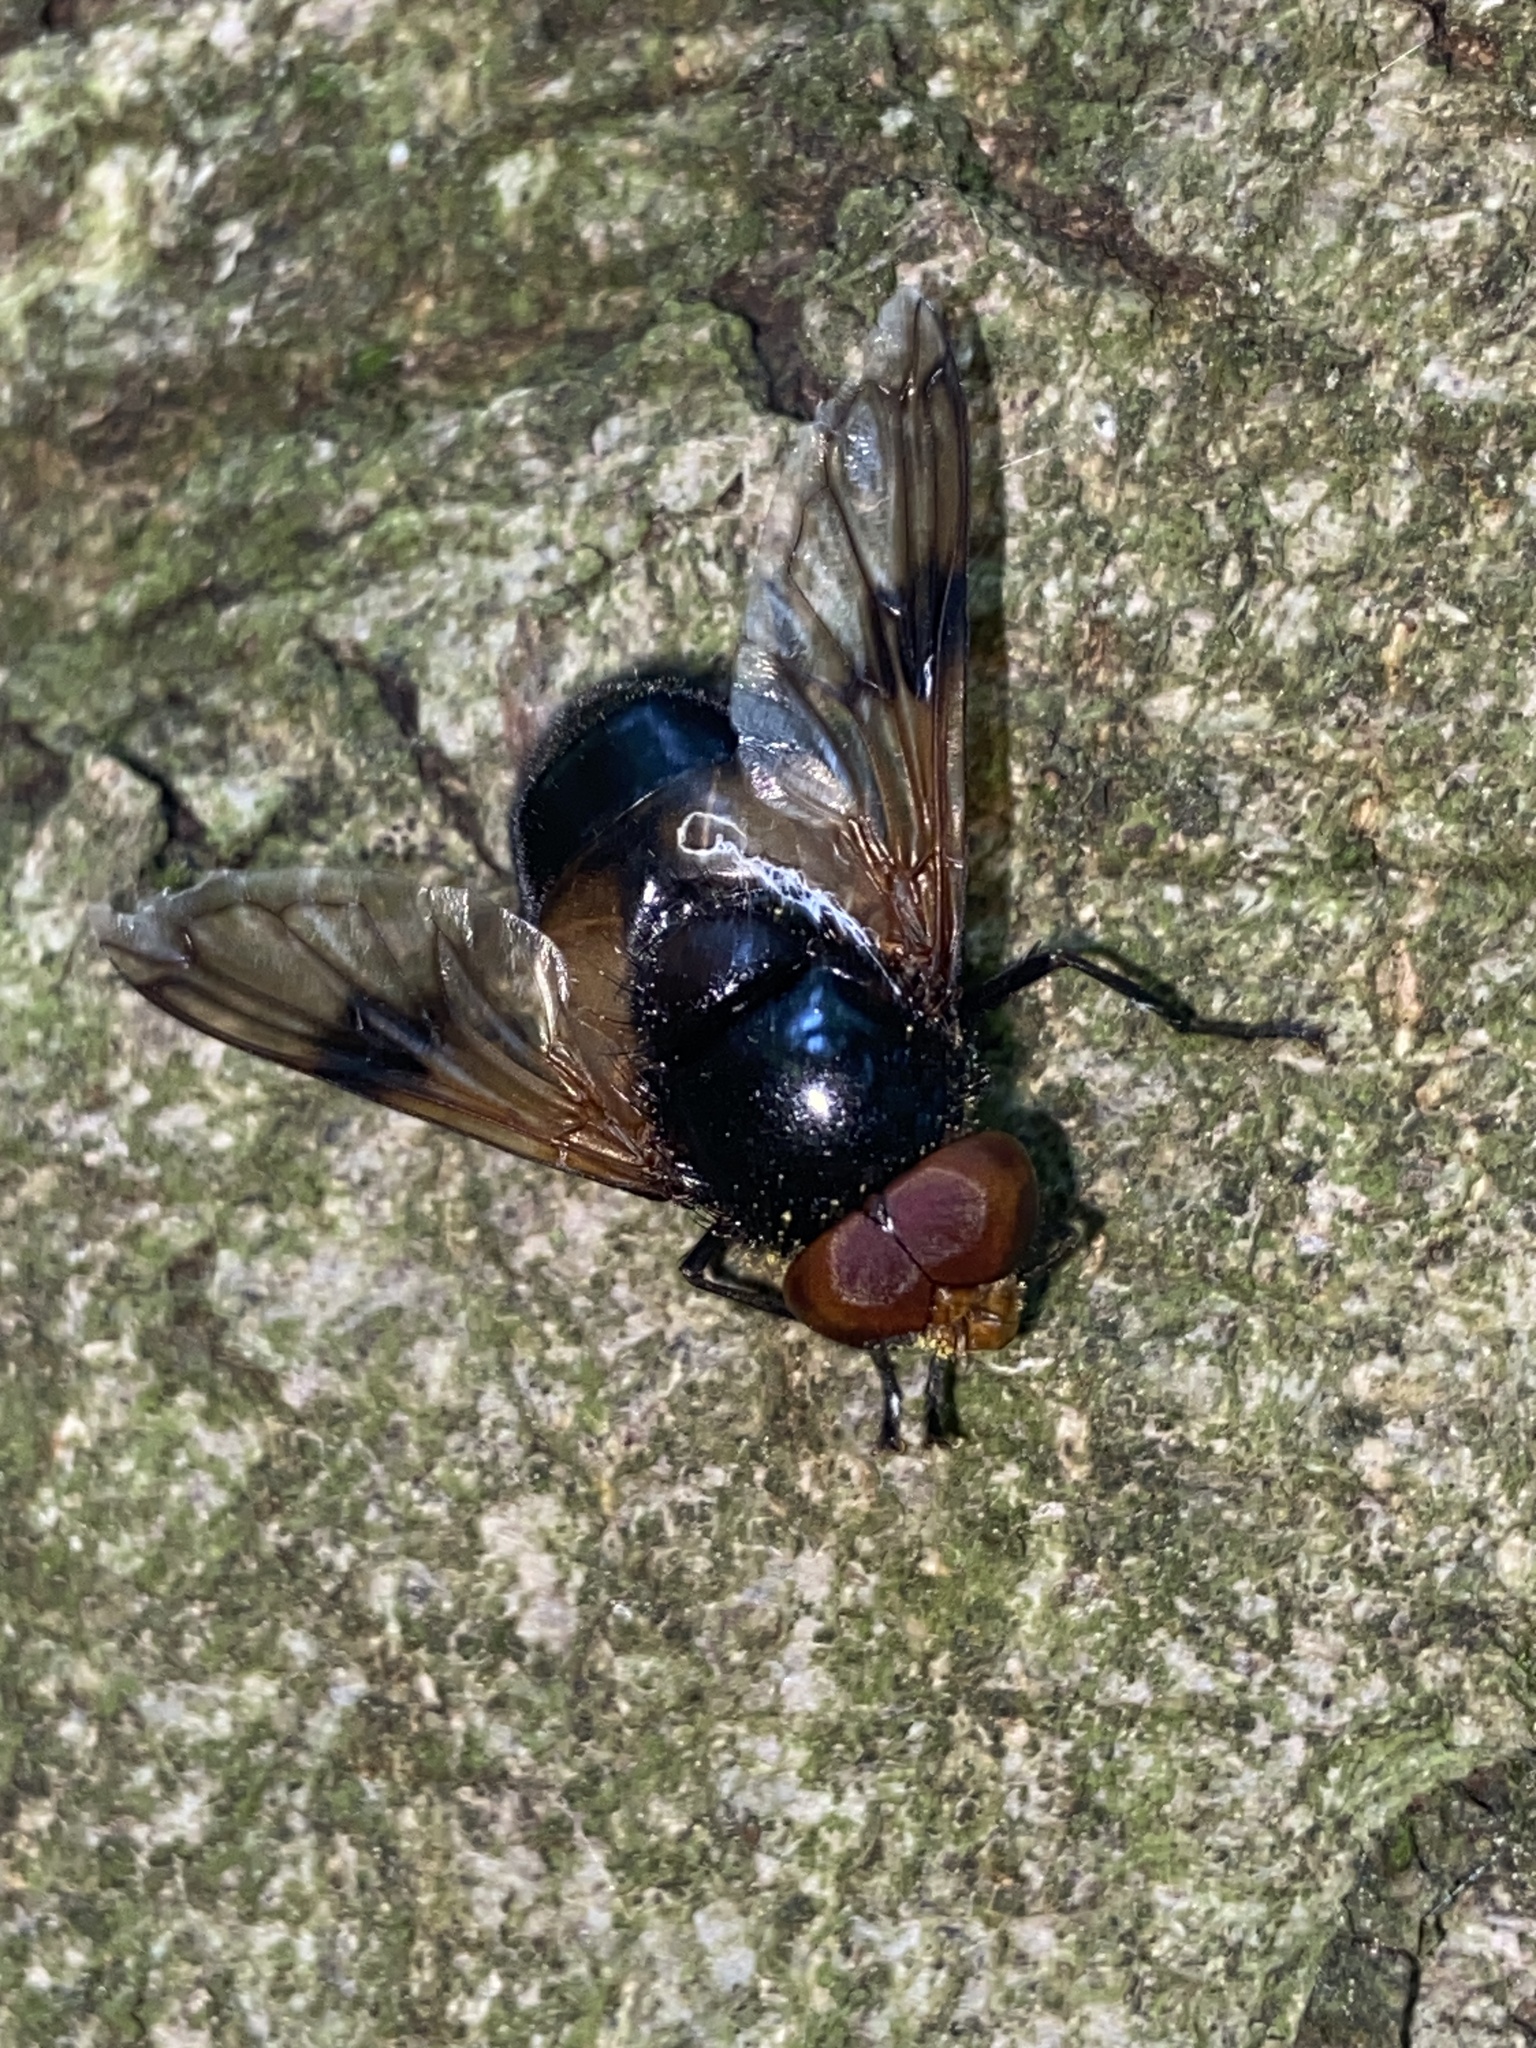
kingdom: Animalia
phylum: Arthropoda
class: Insecta
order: Diptera
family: Syrphidae
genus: Volucella
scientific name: Volucella pellucens
